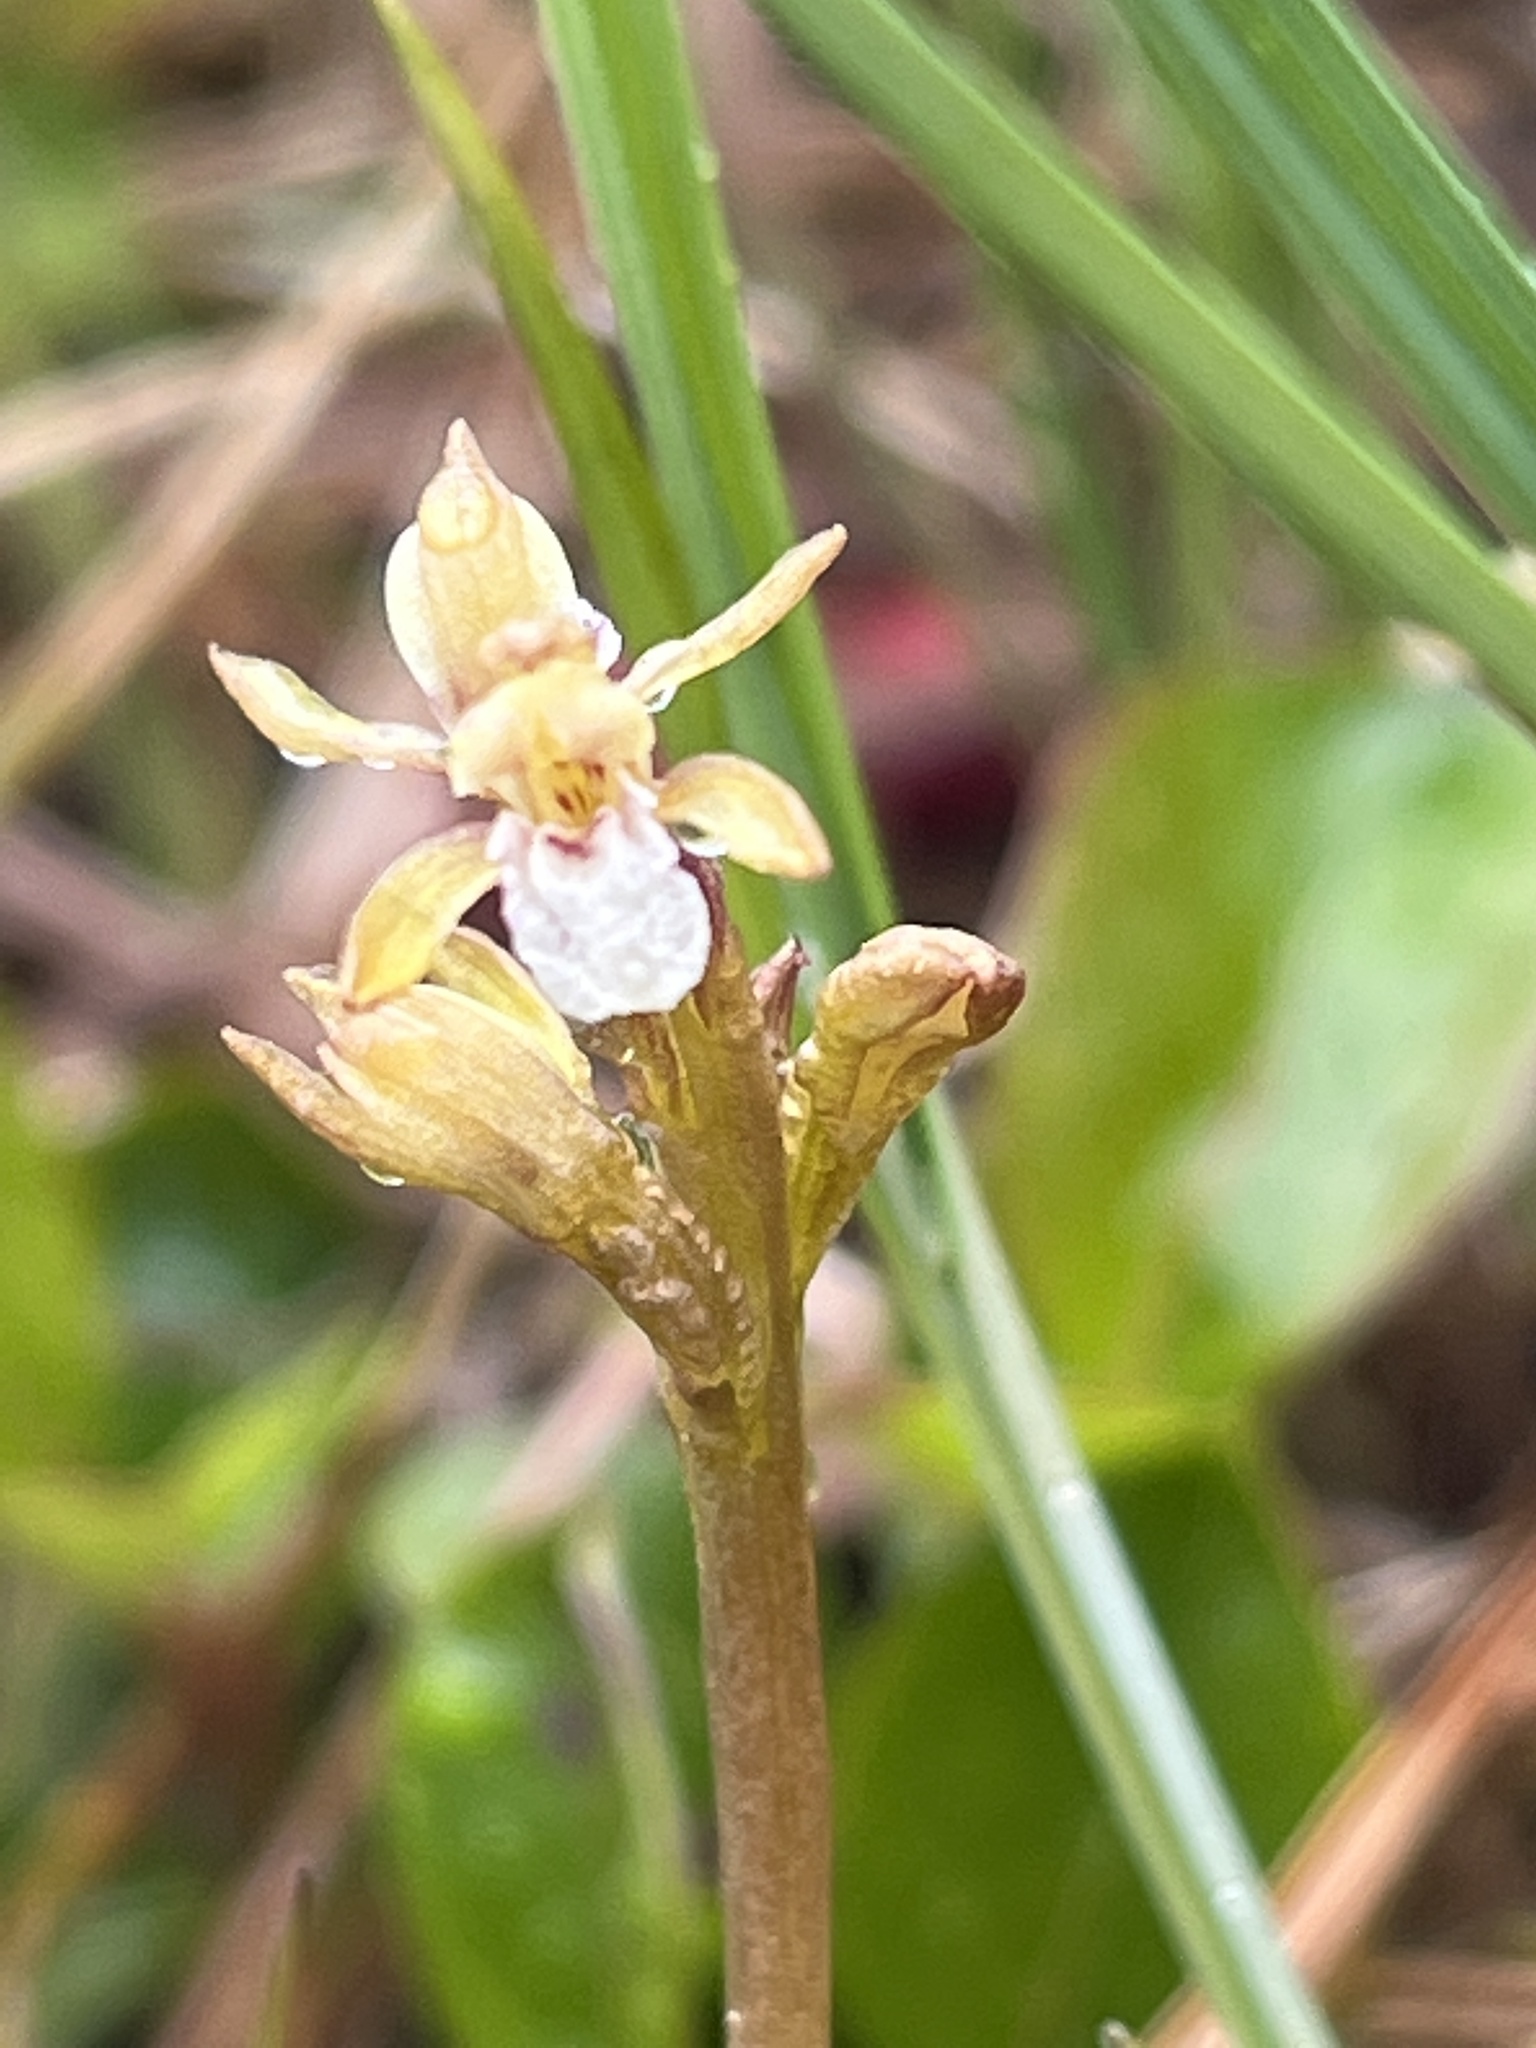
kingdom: Plantae
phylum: Tracheophyta
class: Liliopsida
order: Asparagales
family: Orchidaceae
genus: Corallorhiza
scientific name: Corallorhiza trifida
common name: Yellow coralroot
